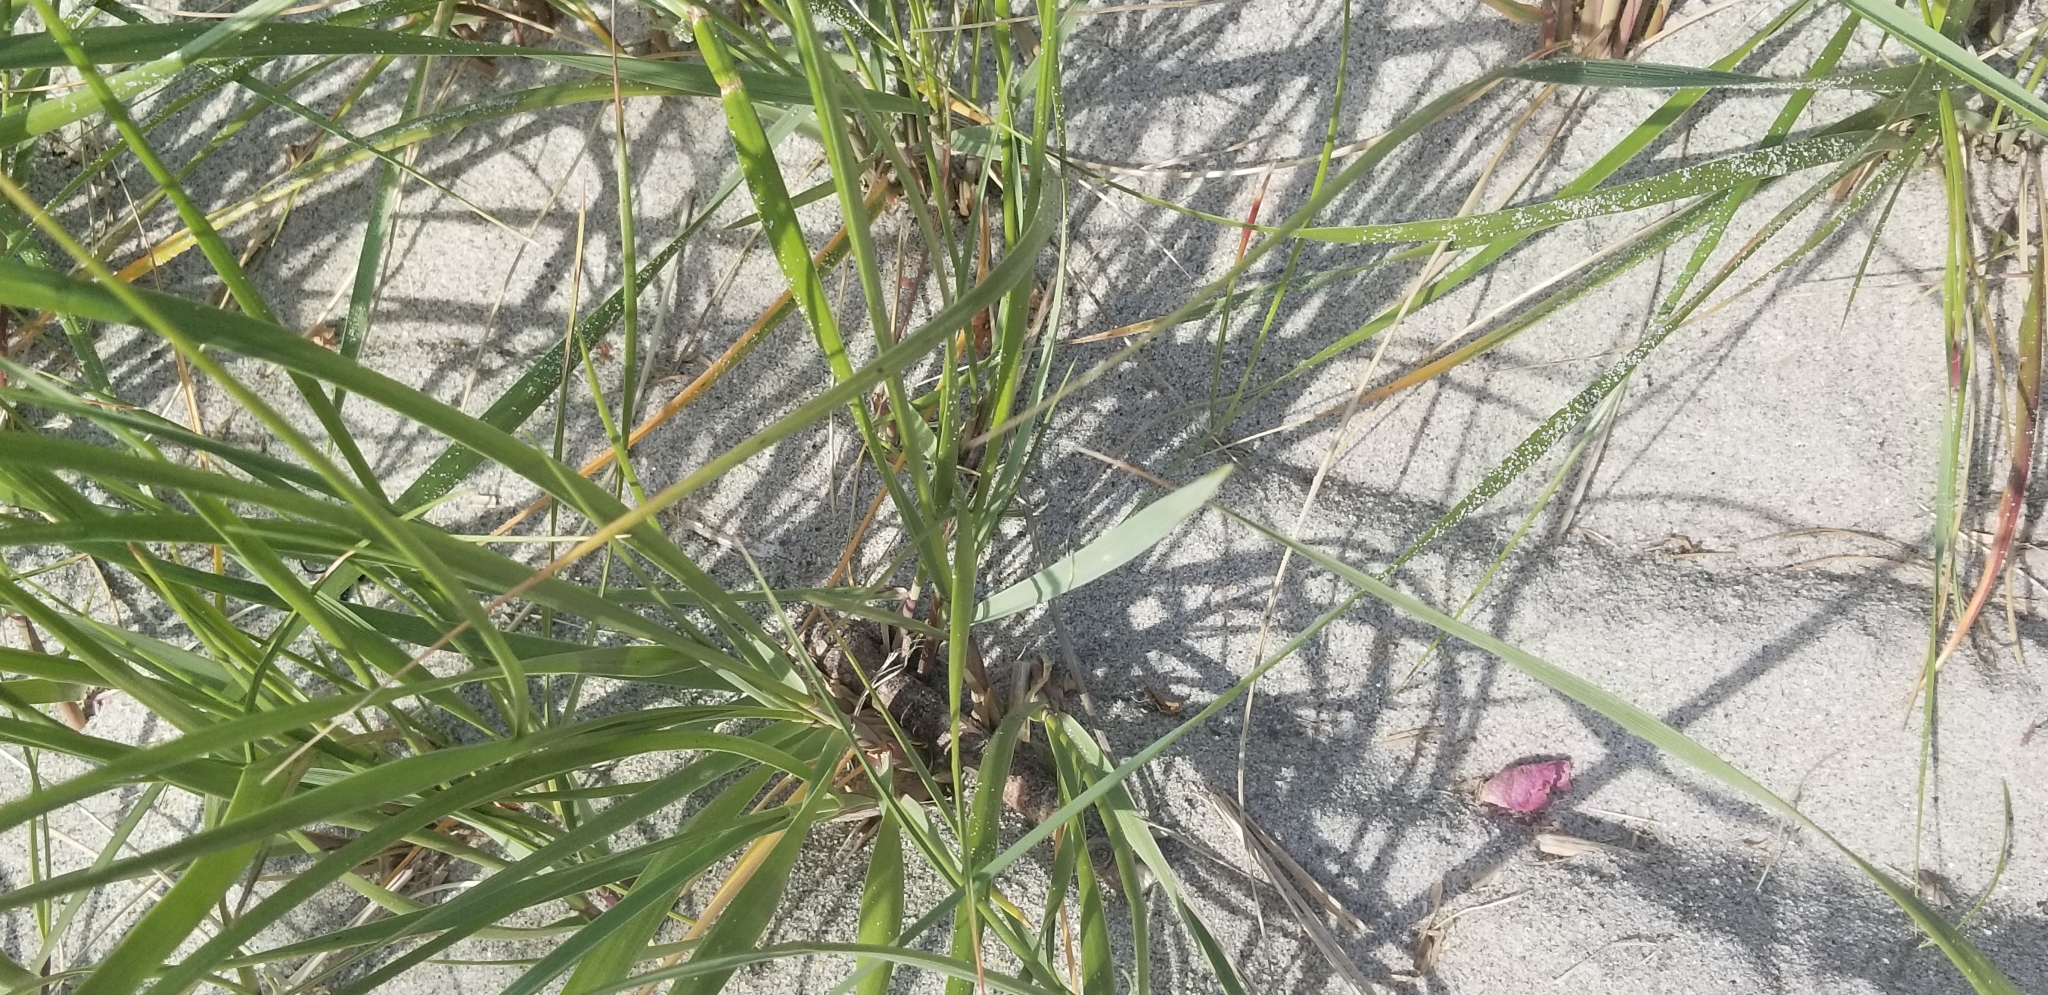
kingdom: Plantae
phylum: Tracheophyta
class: Liliopsida
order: Poales
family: Poaceae
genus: Calamagrostis
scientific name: Calamagrostis breviligulata
